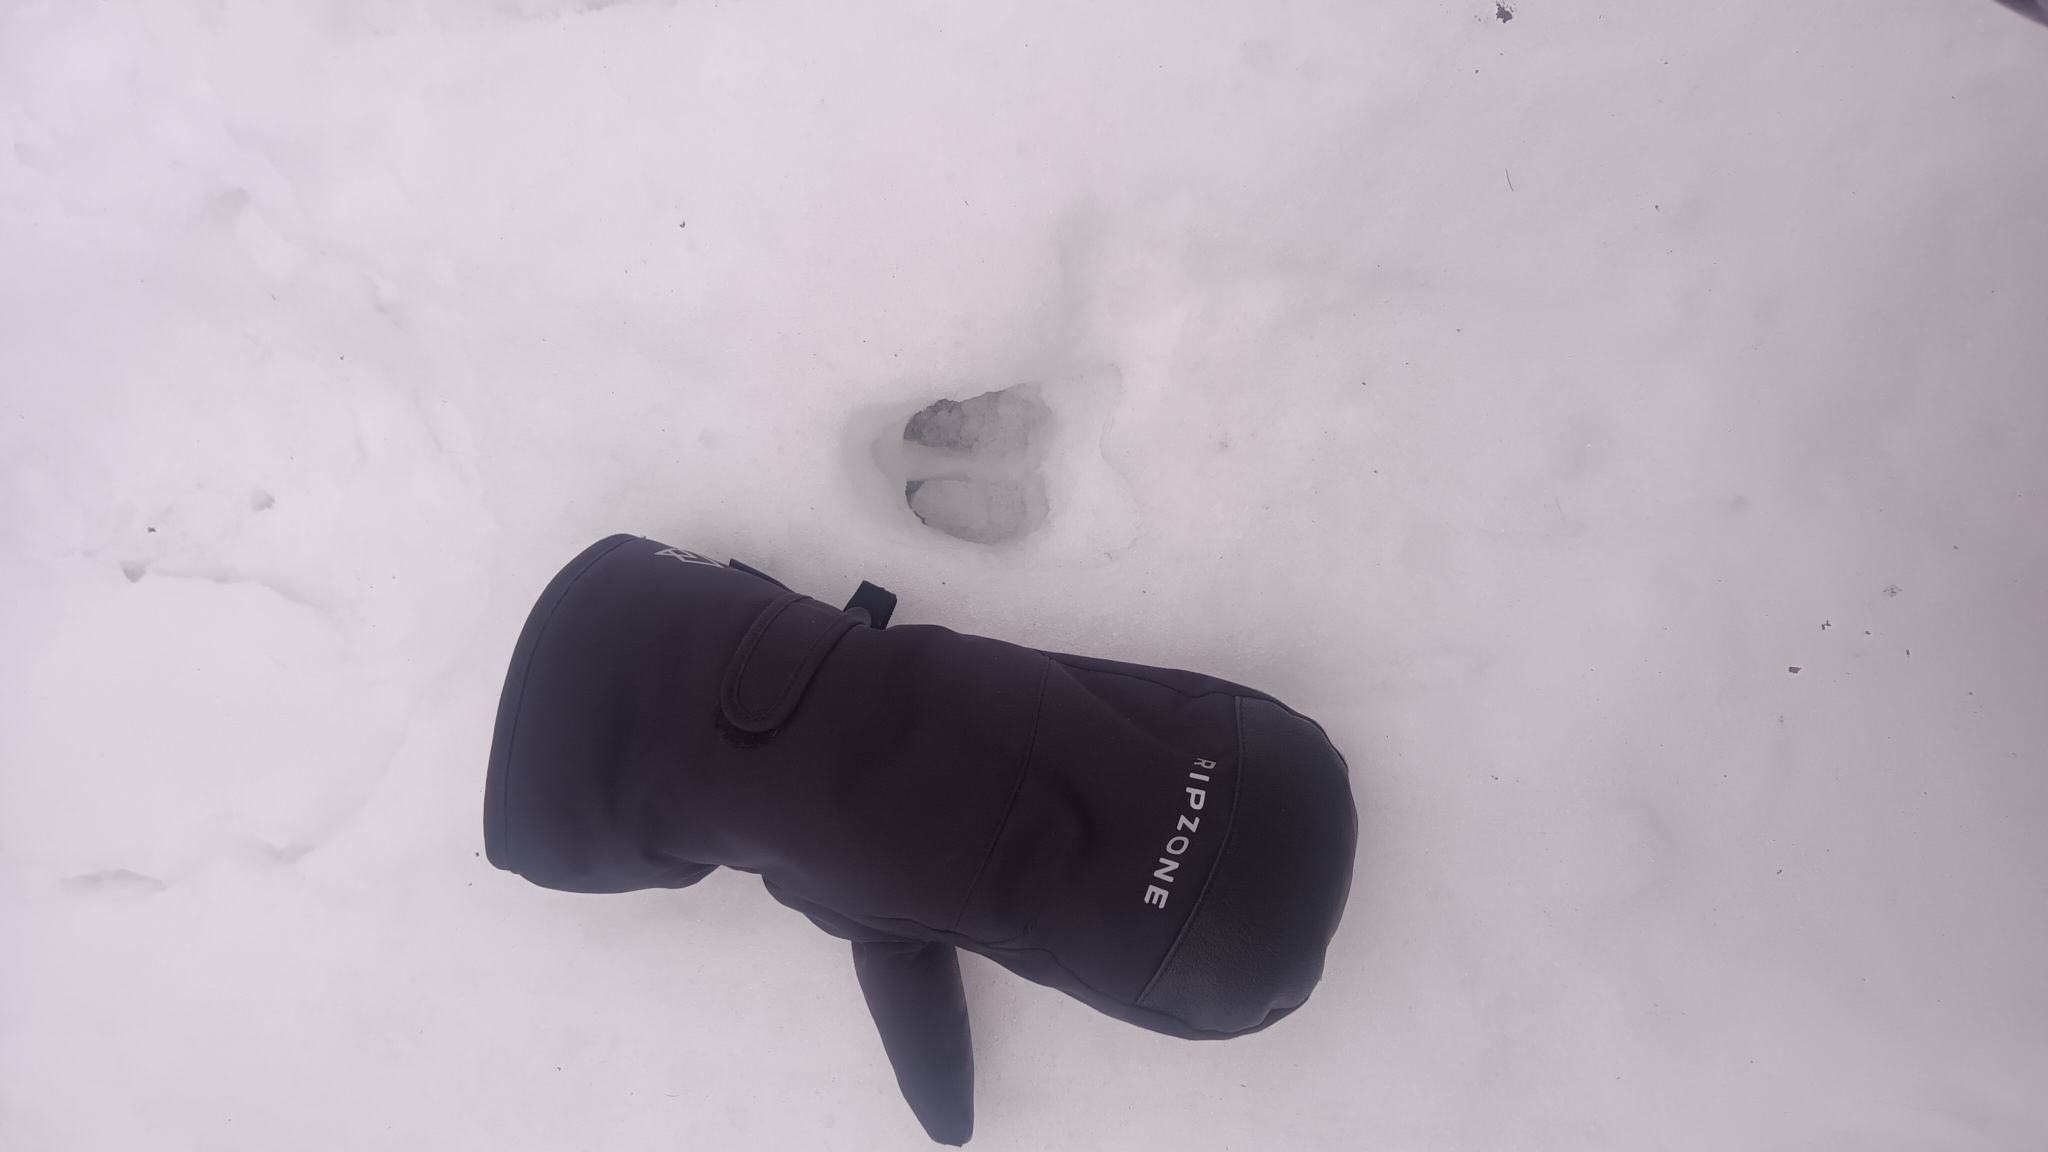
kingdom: Animalia
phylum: Chordata
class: Mammalia
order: Artiodactyla
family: Cervidae
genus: Odocoileus
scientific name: Odocoileus virginianus
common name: White-tailed deer
